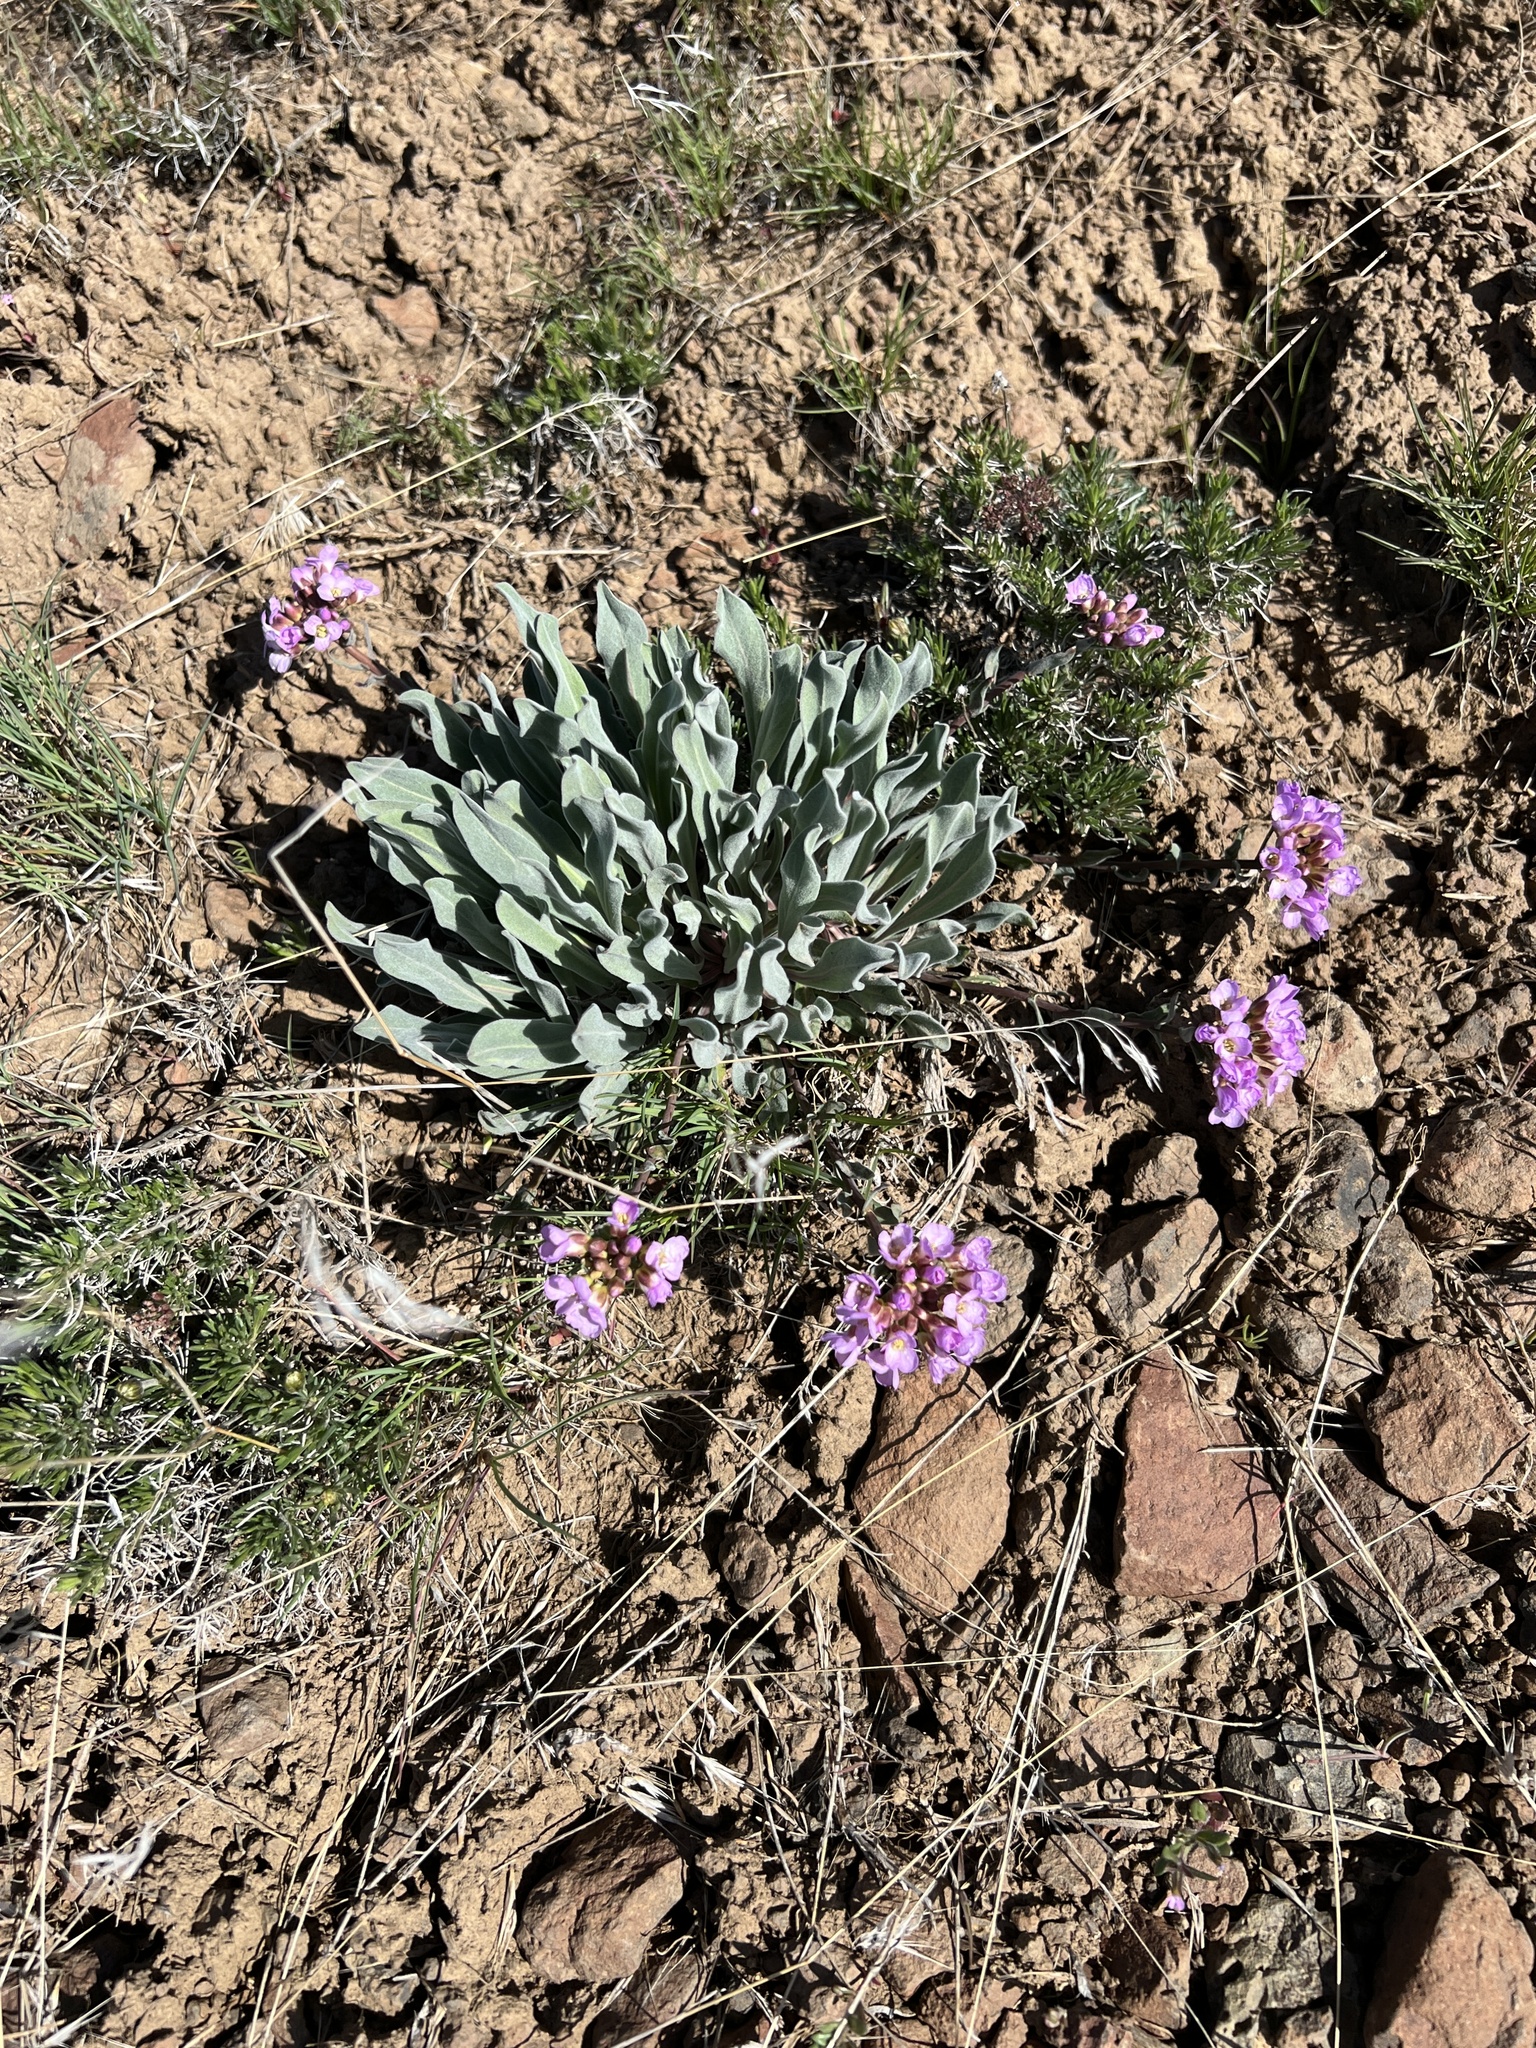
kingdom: Plantae
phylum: Tracheophyta
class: Magnoliopsida
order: Brassicales
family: Brassicaceae
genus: Phoenicaulis
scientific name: Phoenicaulis cheiranthoides
